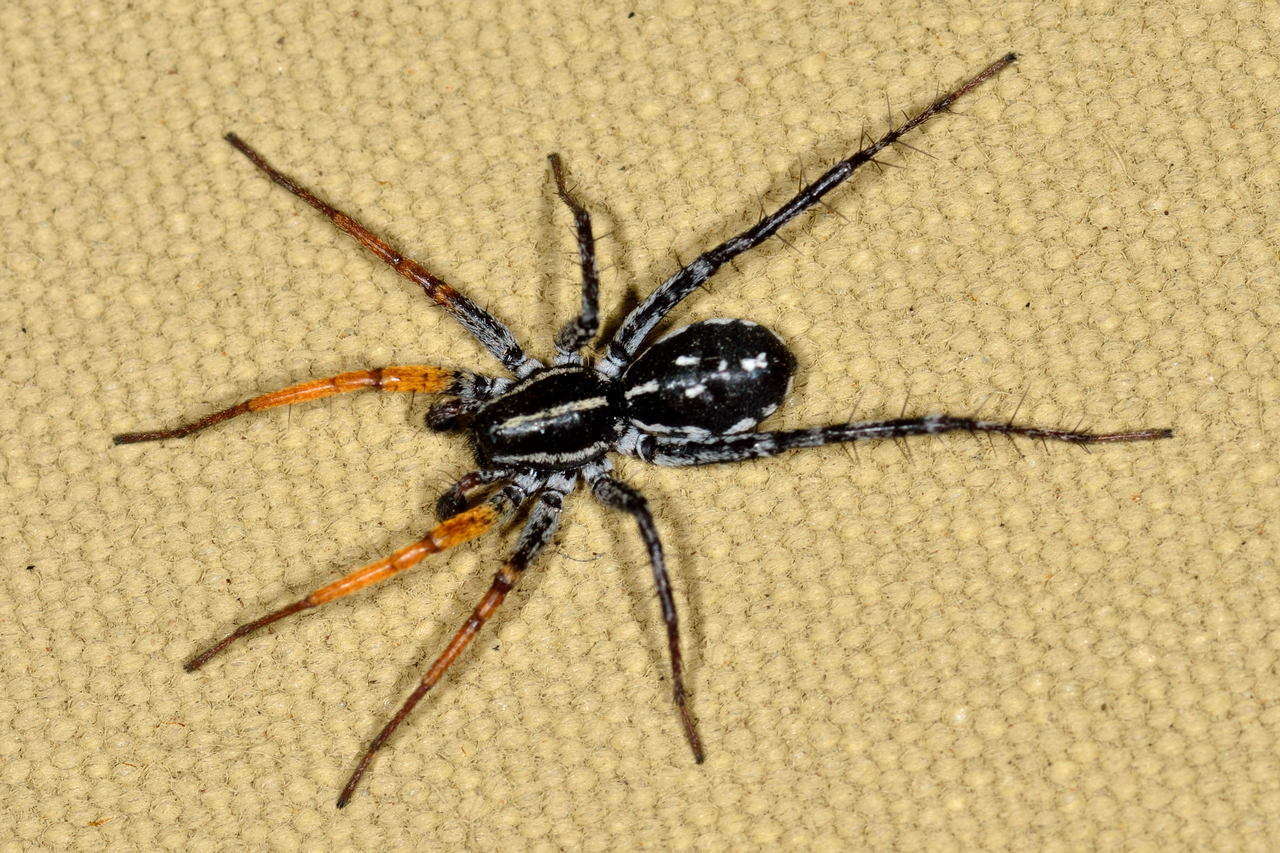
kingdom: Animalia
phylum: Arthropoda
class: Arachnida
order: Araneae
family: Corinnidae
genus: Nyssus
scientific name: Nyssus coloripes
